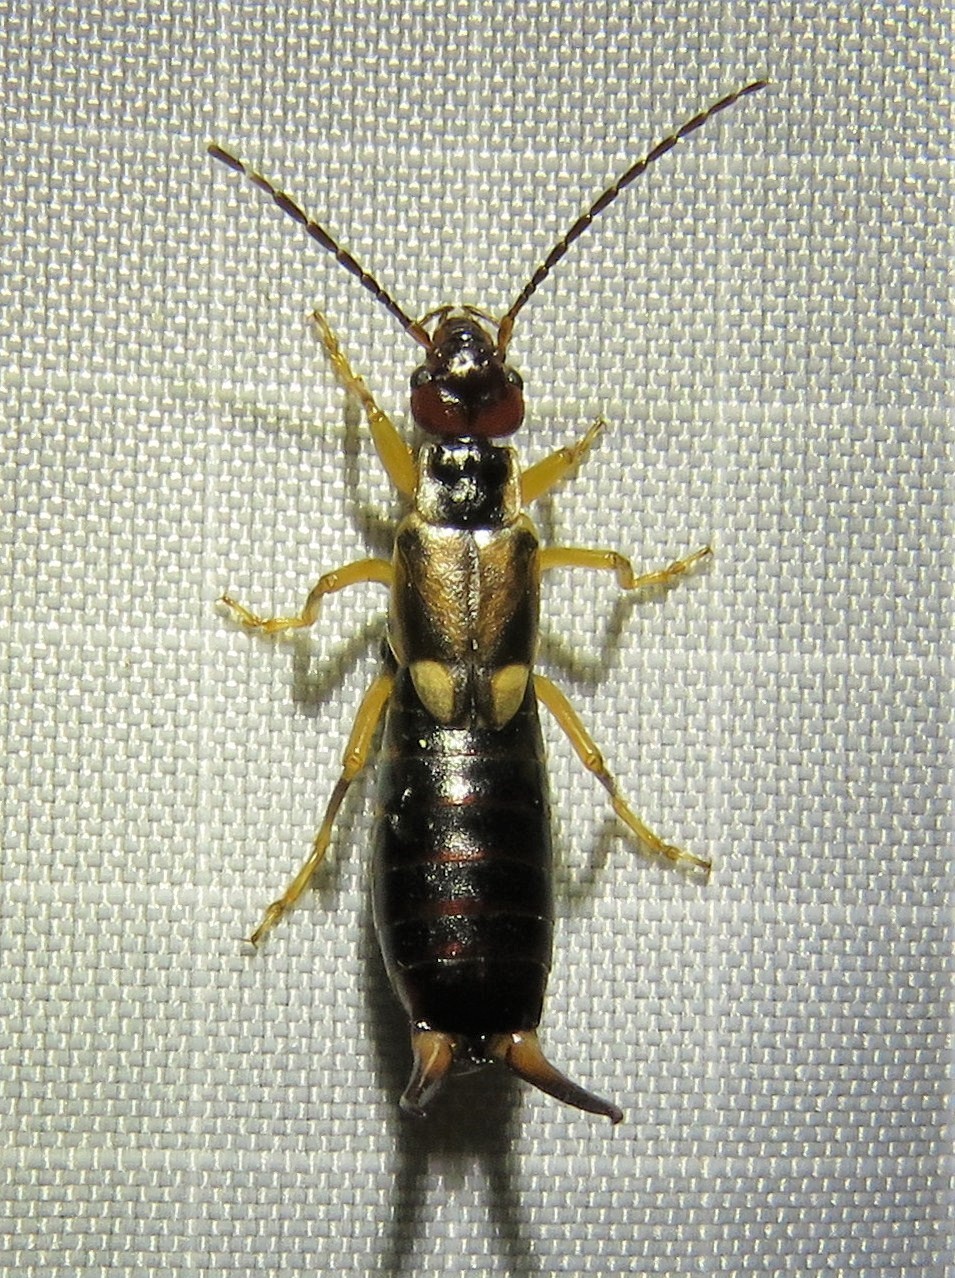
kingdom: Animalia
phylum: Arthropoda
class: Insecta
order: Dermaptera
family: Forficulidae
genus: Forficula
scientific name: Forficula
